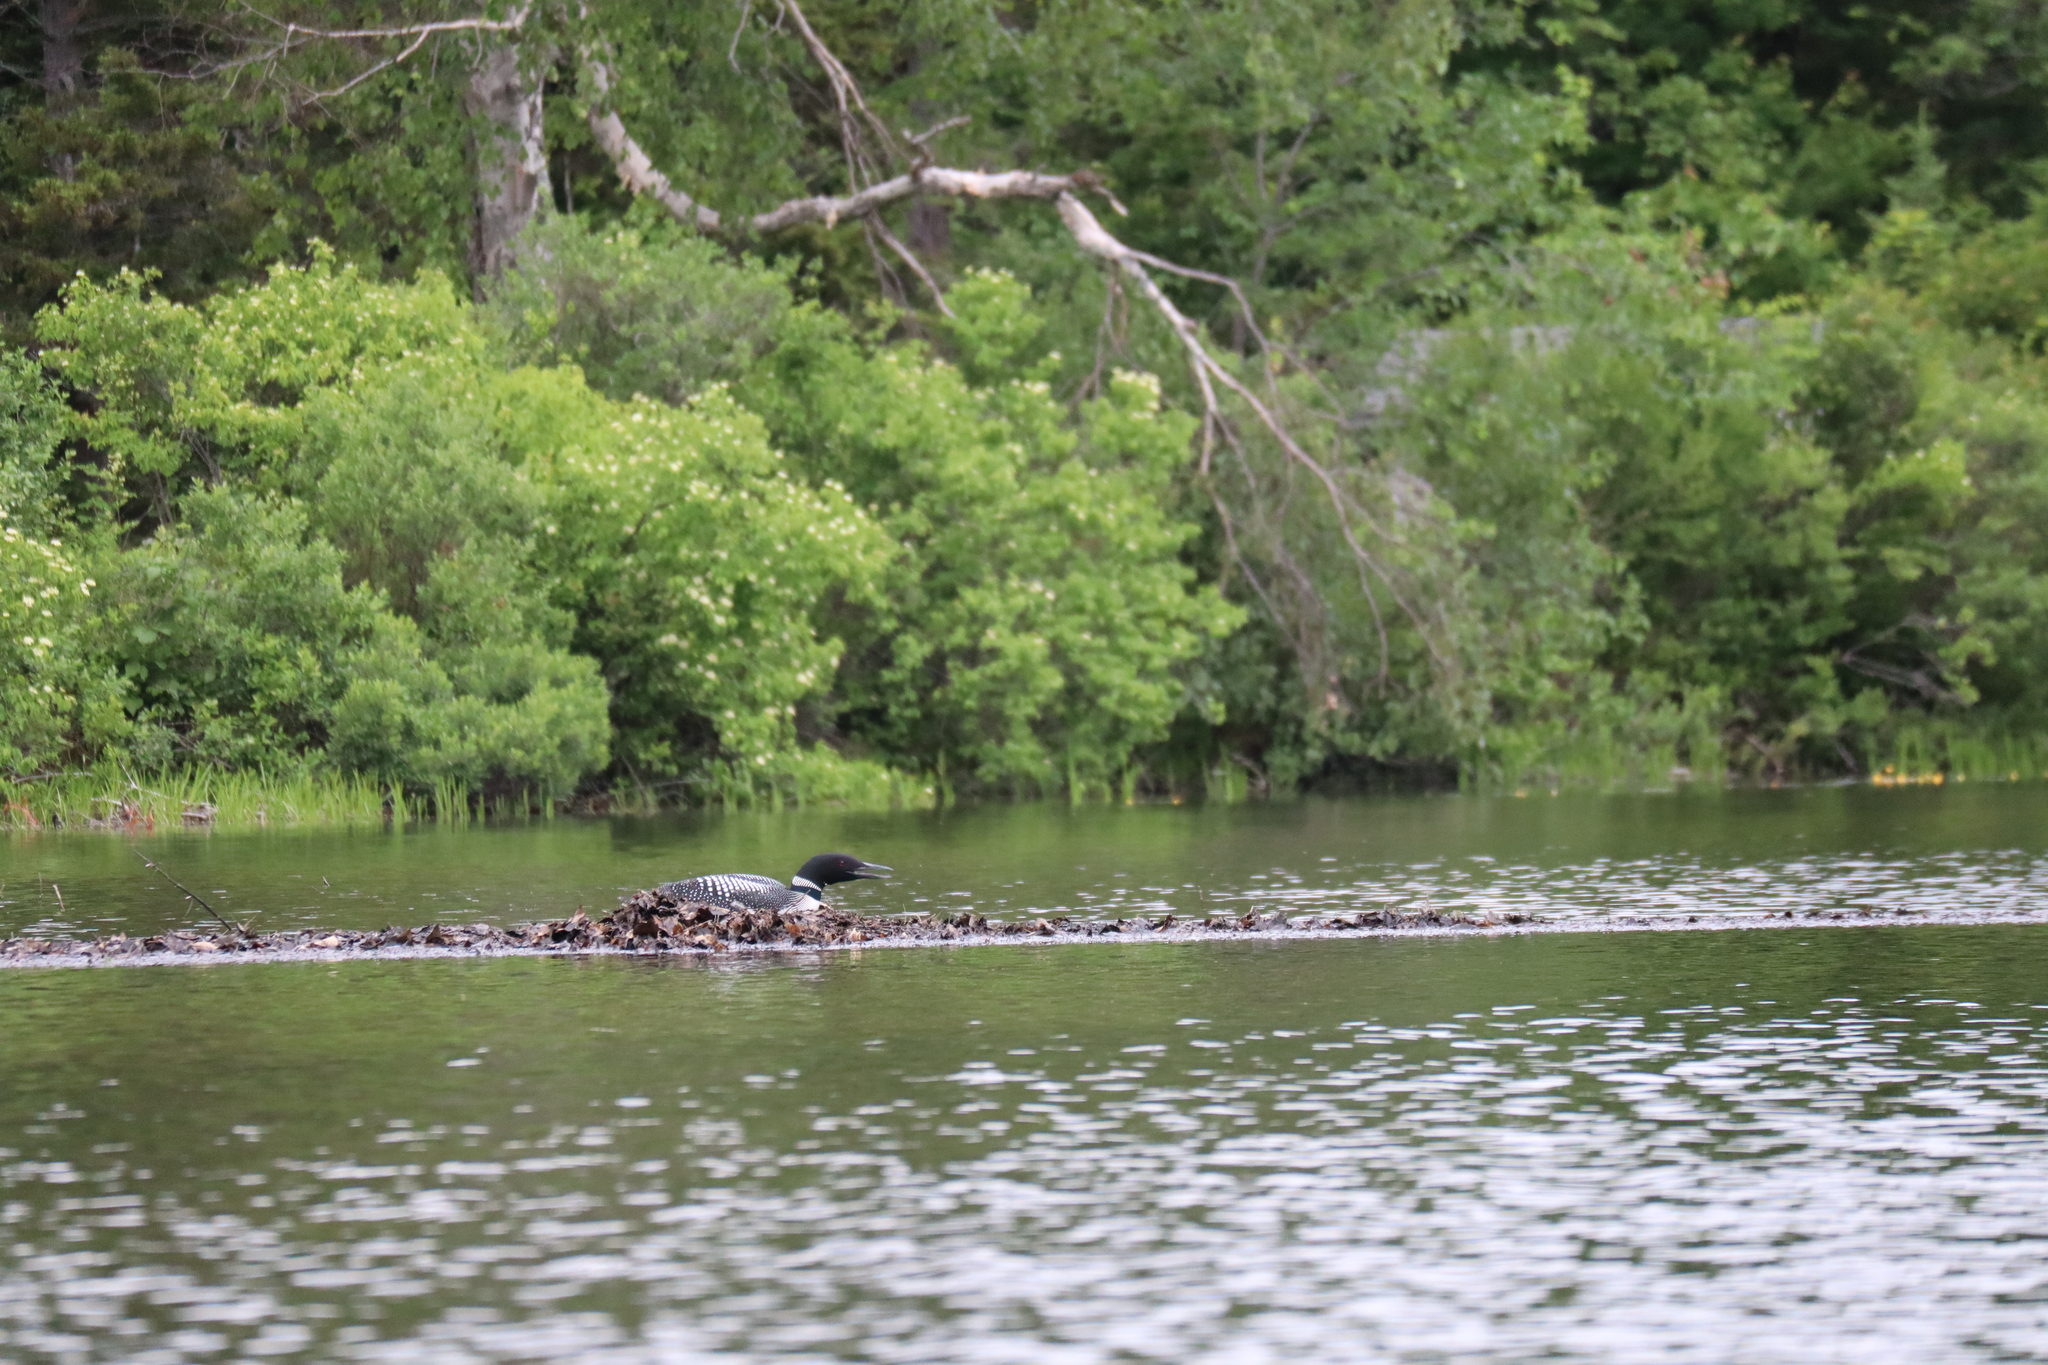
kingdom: Animalia
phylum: Chordata
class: Aves
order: Gaviiformes
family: Gaviidae
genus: Gavia
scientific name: Gavia immer
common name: Common loon
